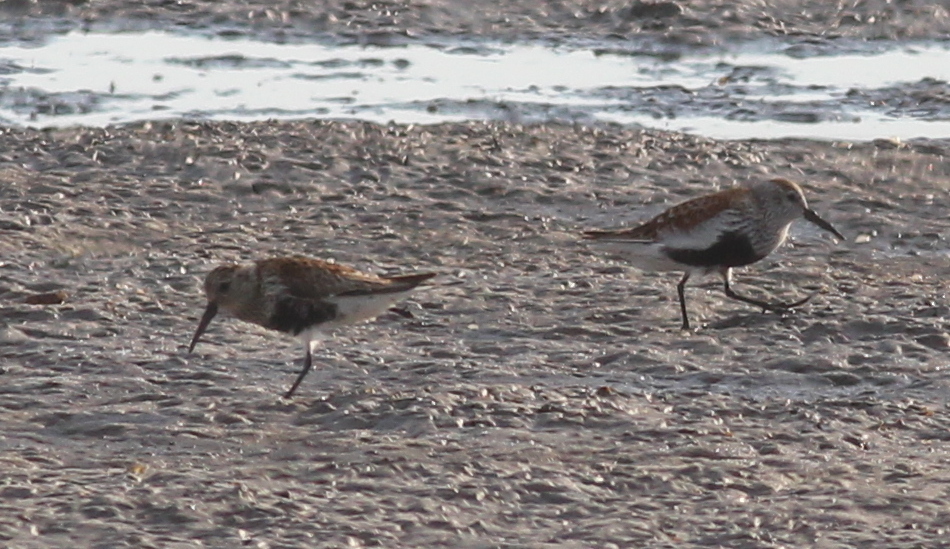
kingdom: Animalia
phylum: Chordata
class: Aves
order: Charadriiformes
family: Scolopacidae
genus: Calidris
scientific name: Calidris alpina
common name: Dunlin
